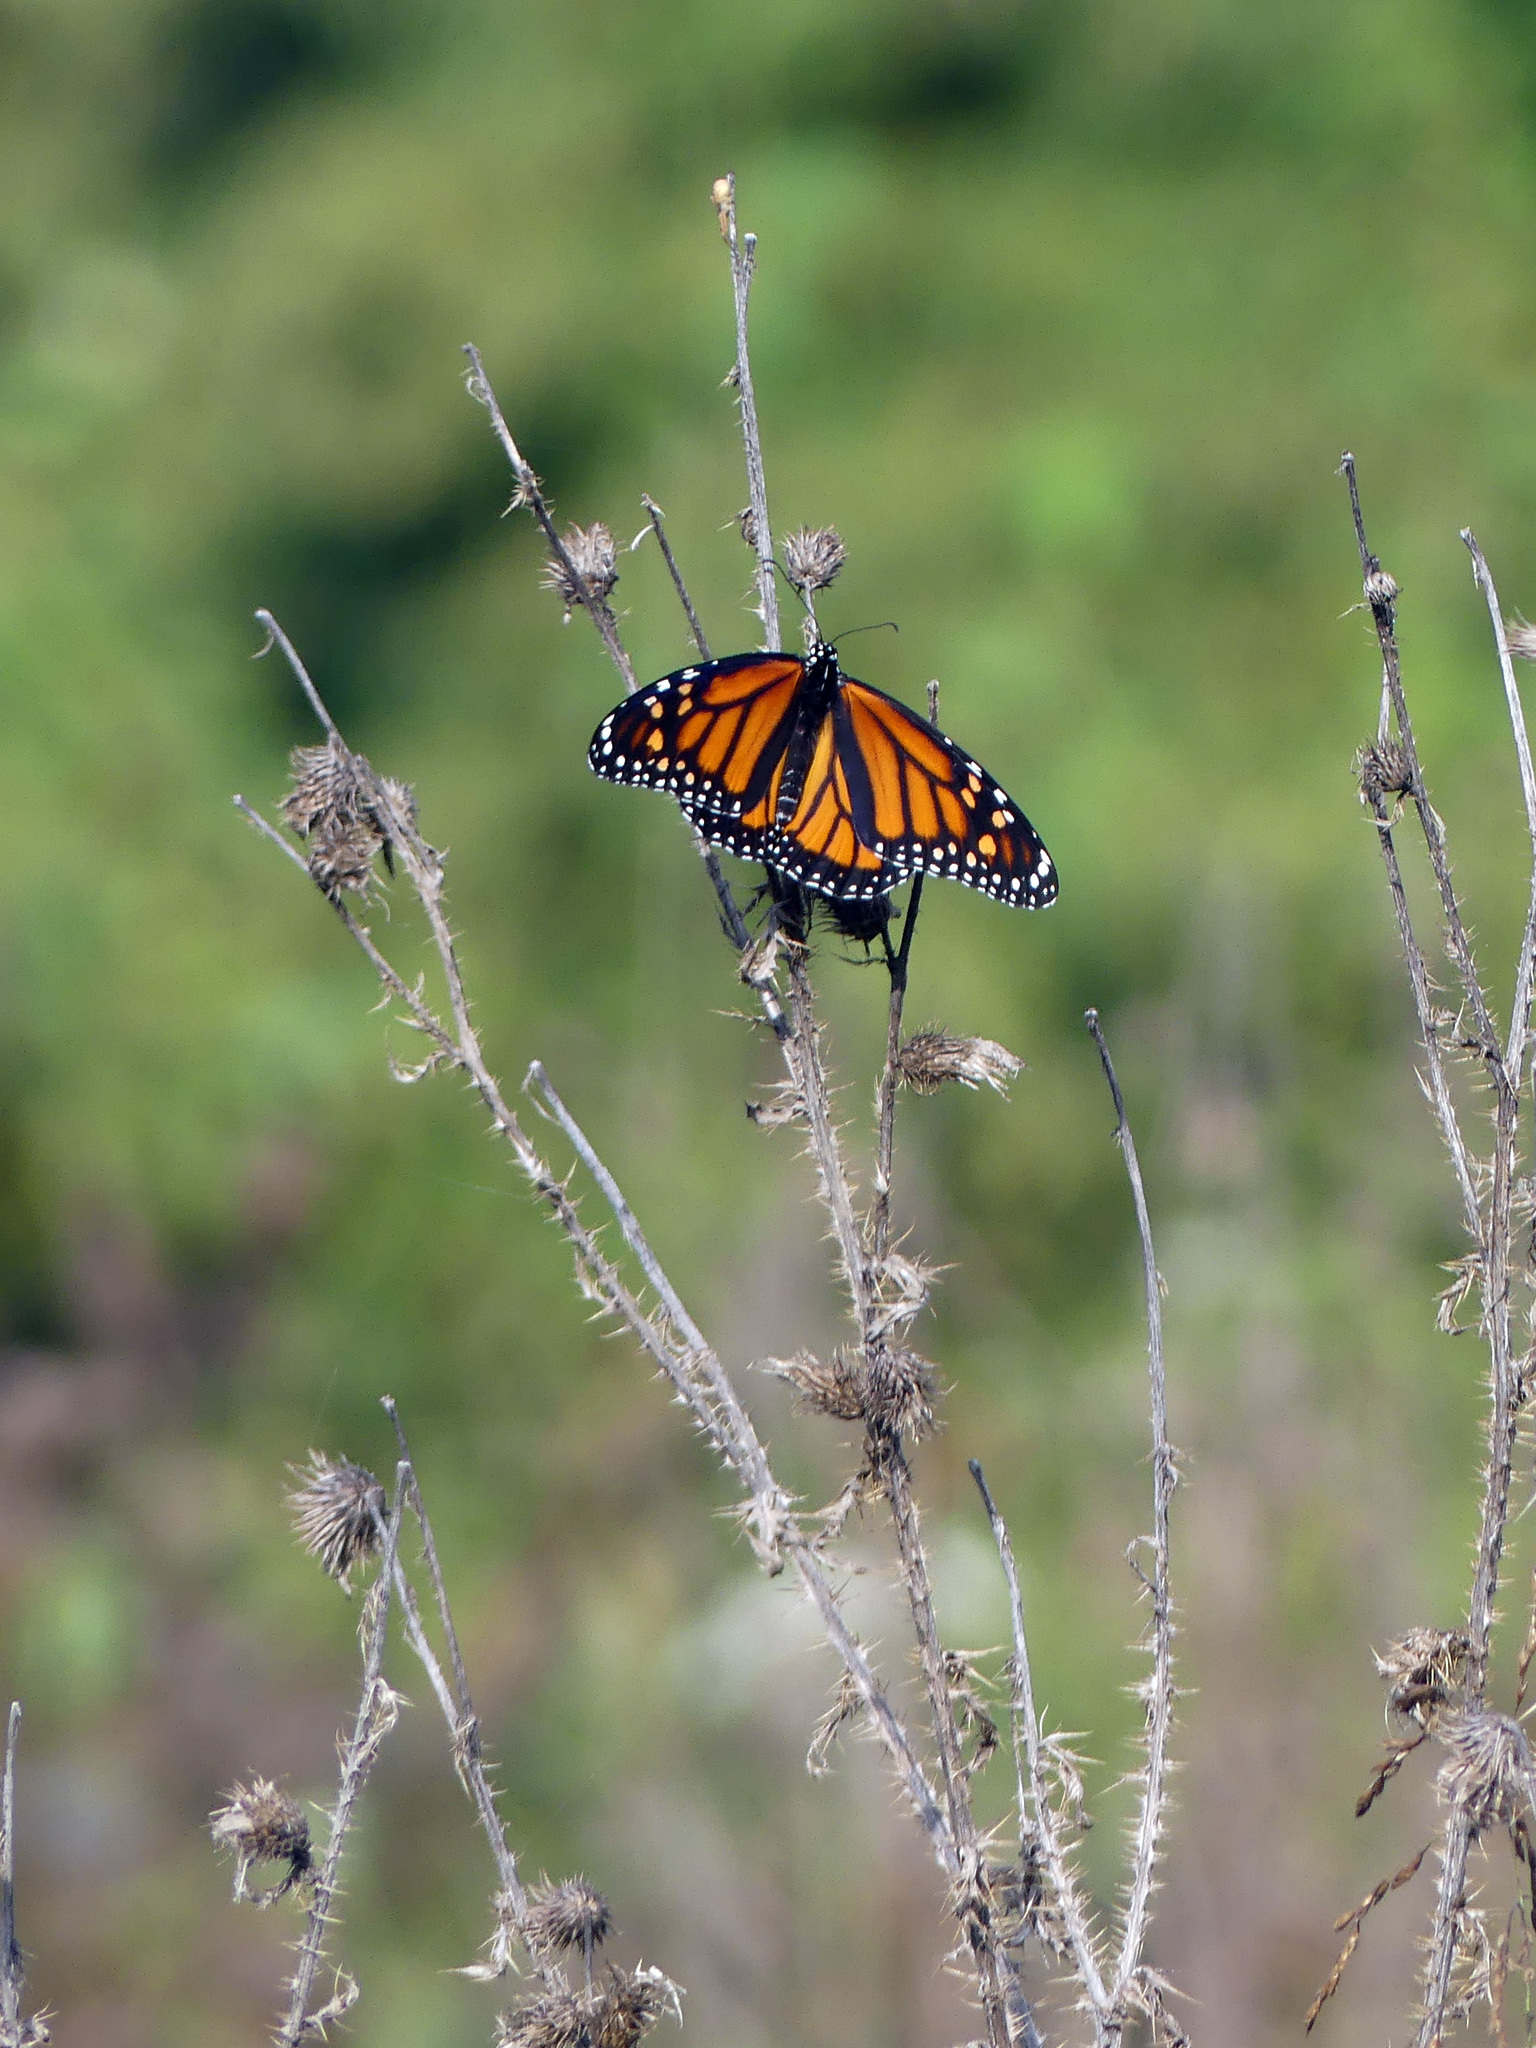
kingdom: Animalia
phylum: Arthropoda
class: Insecta
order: Lepidoptera
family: Nymphalidae
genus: Danaus
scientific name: Danaus plexippus
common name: Monarch
